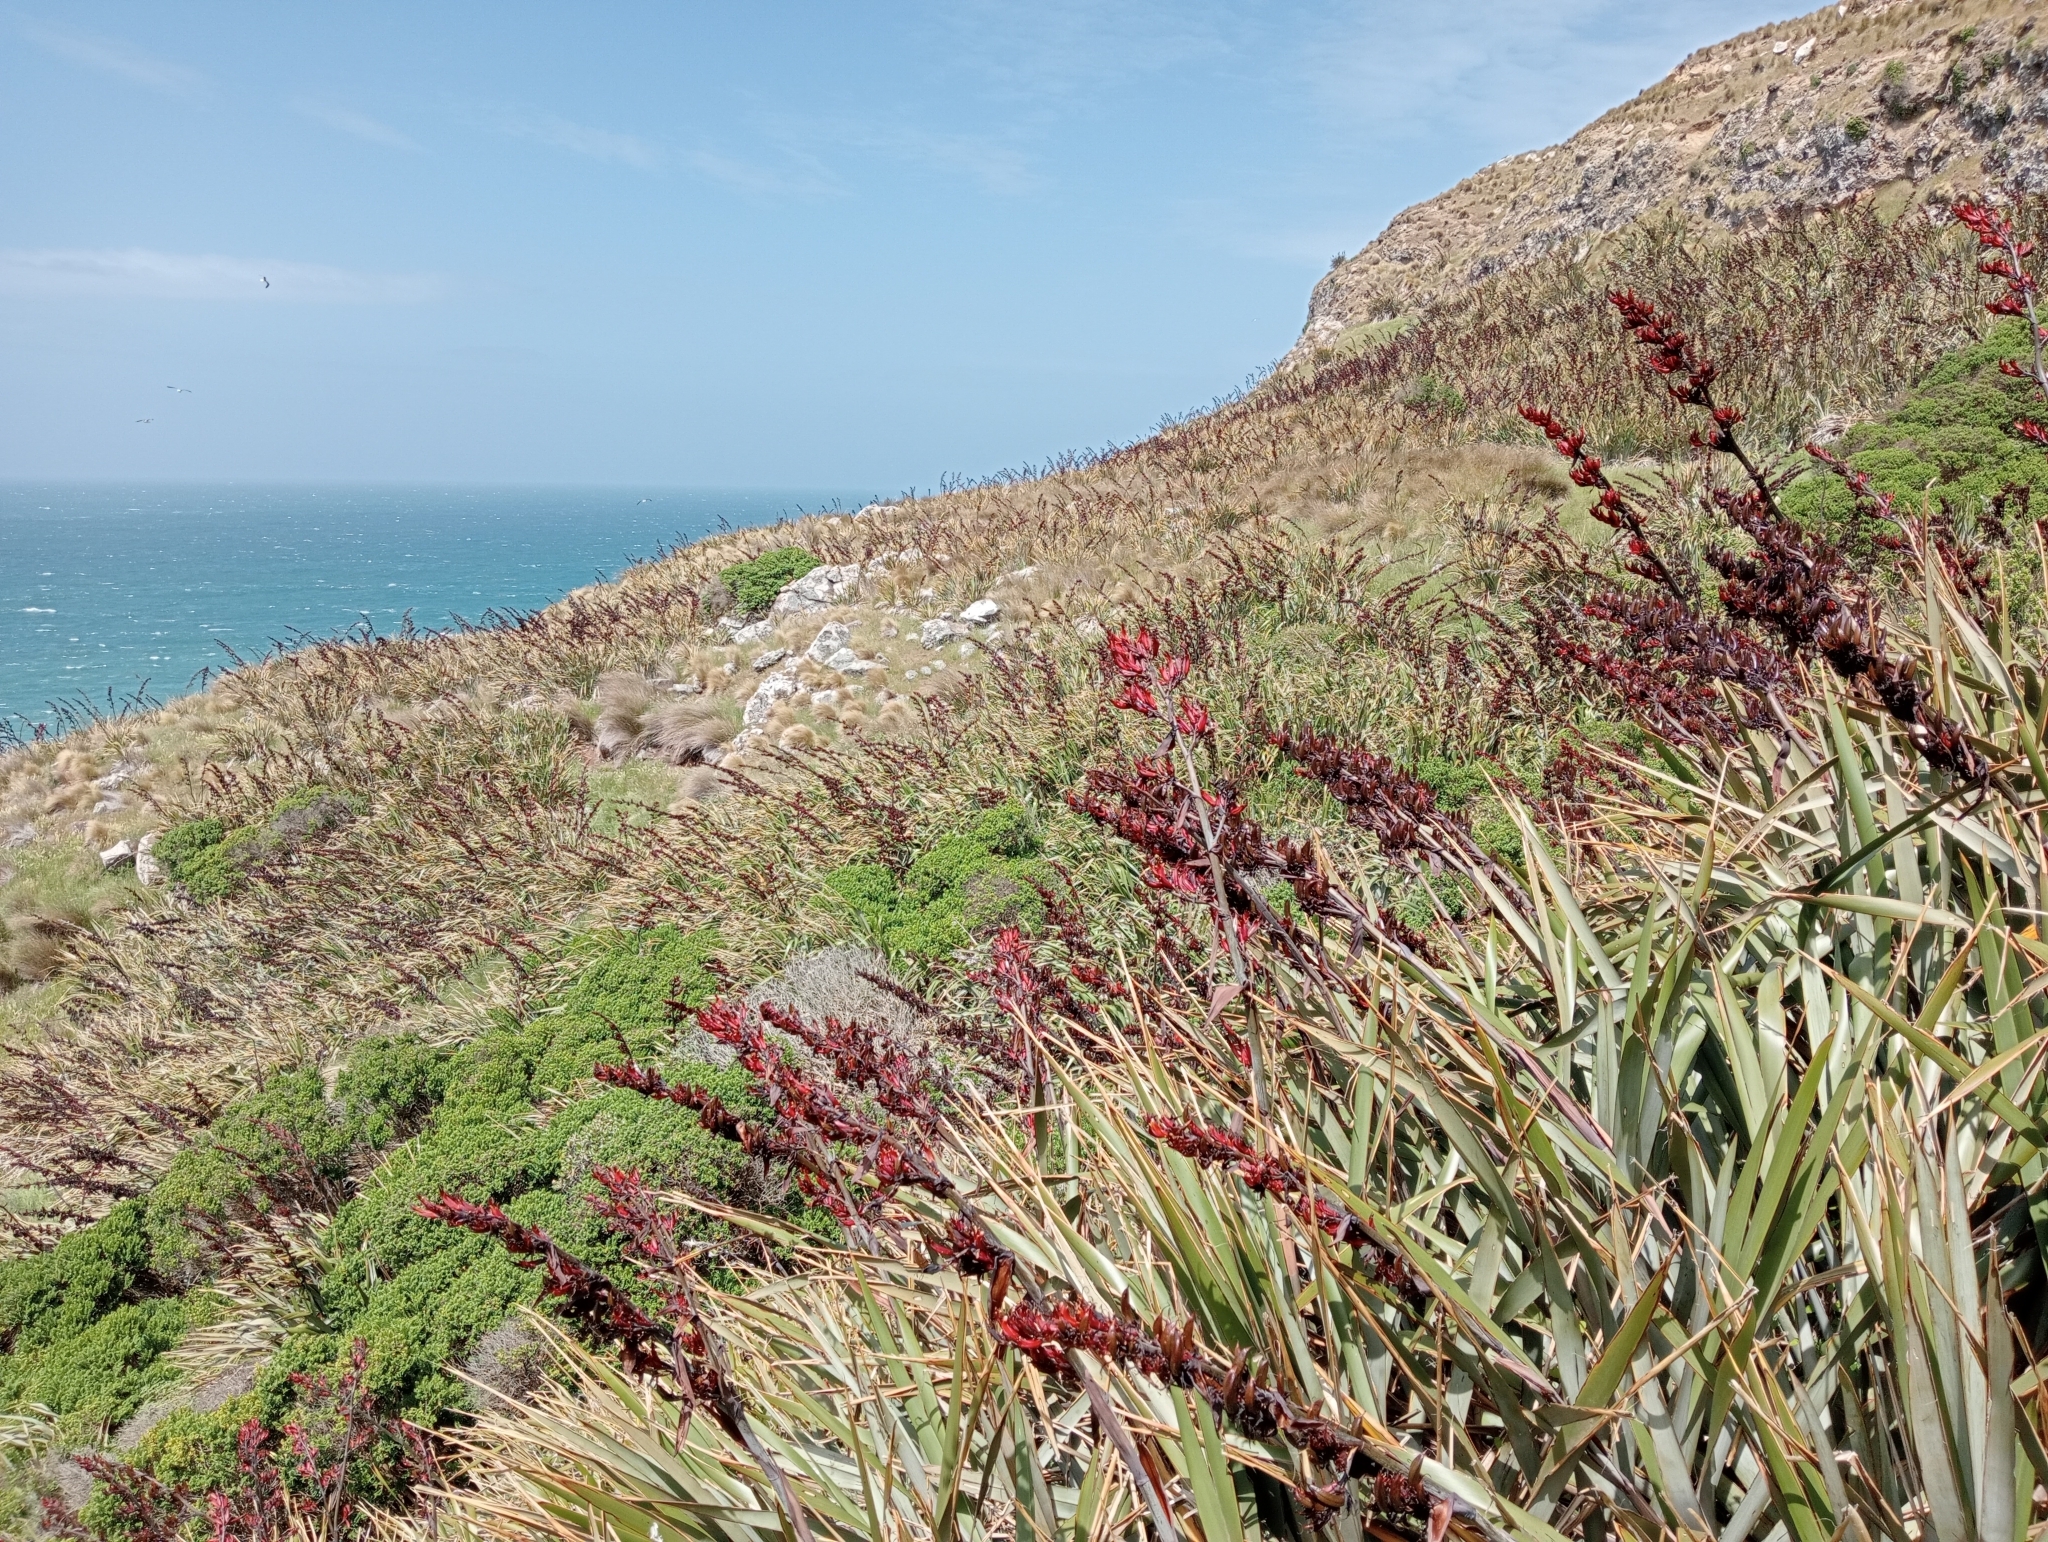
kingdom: Plantae
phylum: Tracheophyta
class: Liliopsida
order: Asparagales
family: Asphodelaceae
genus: Phormium
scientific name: Phormium tenax
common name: New zealand flax
